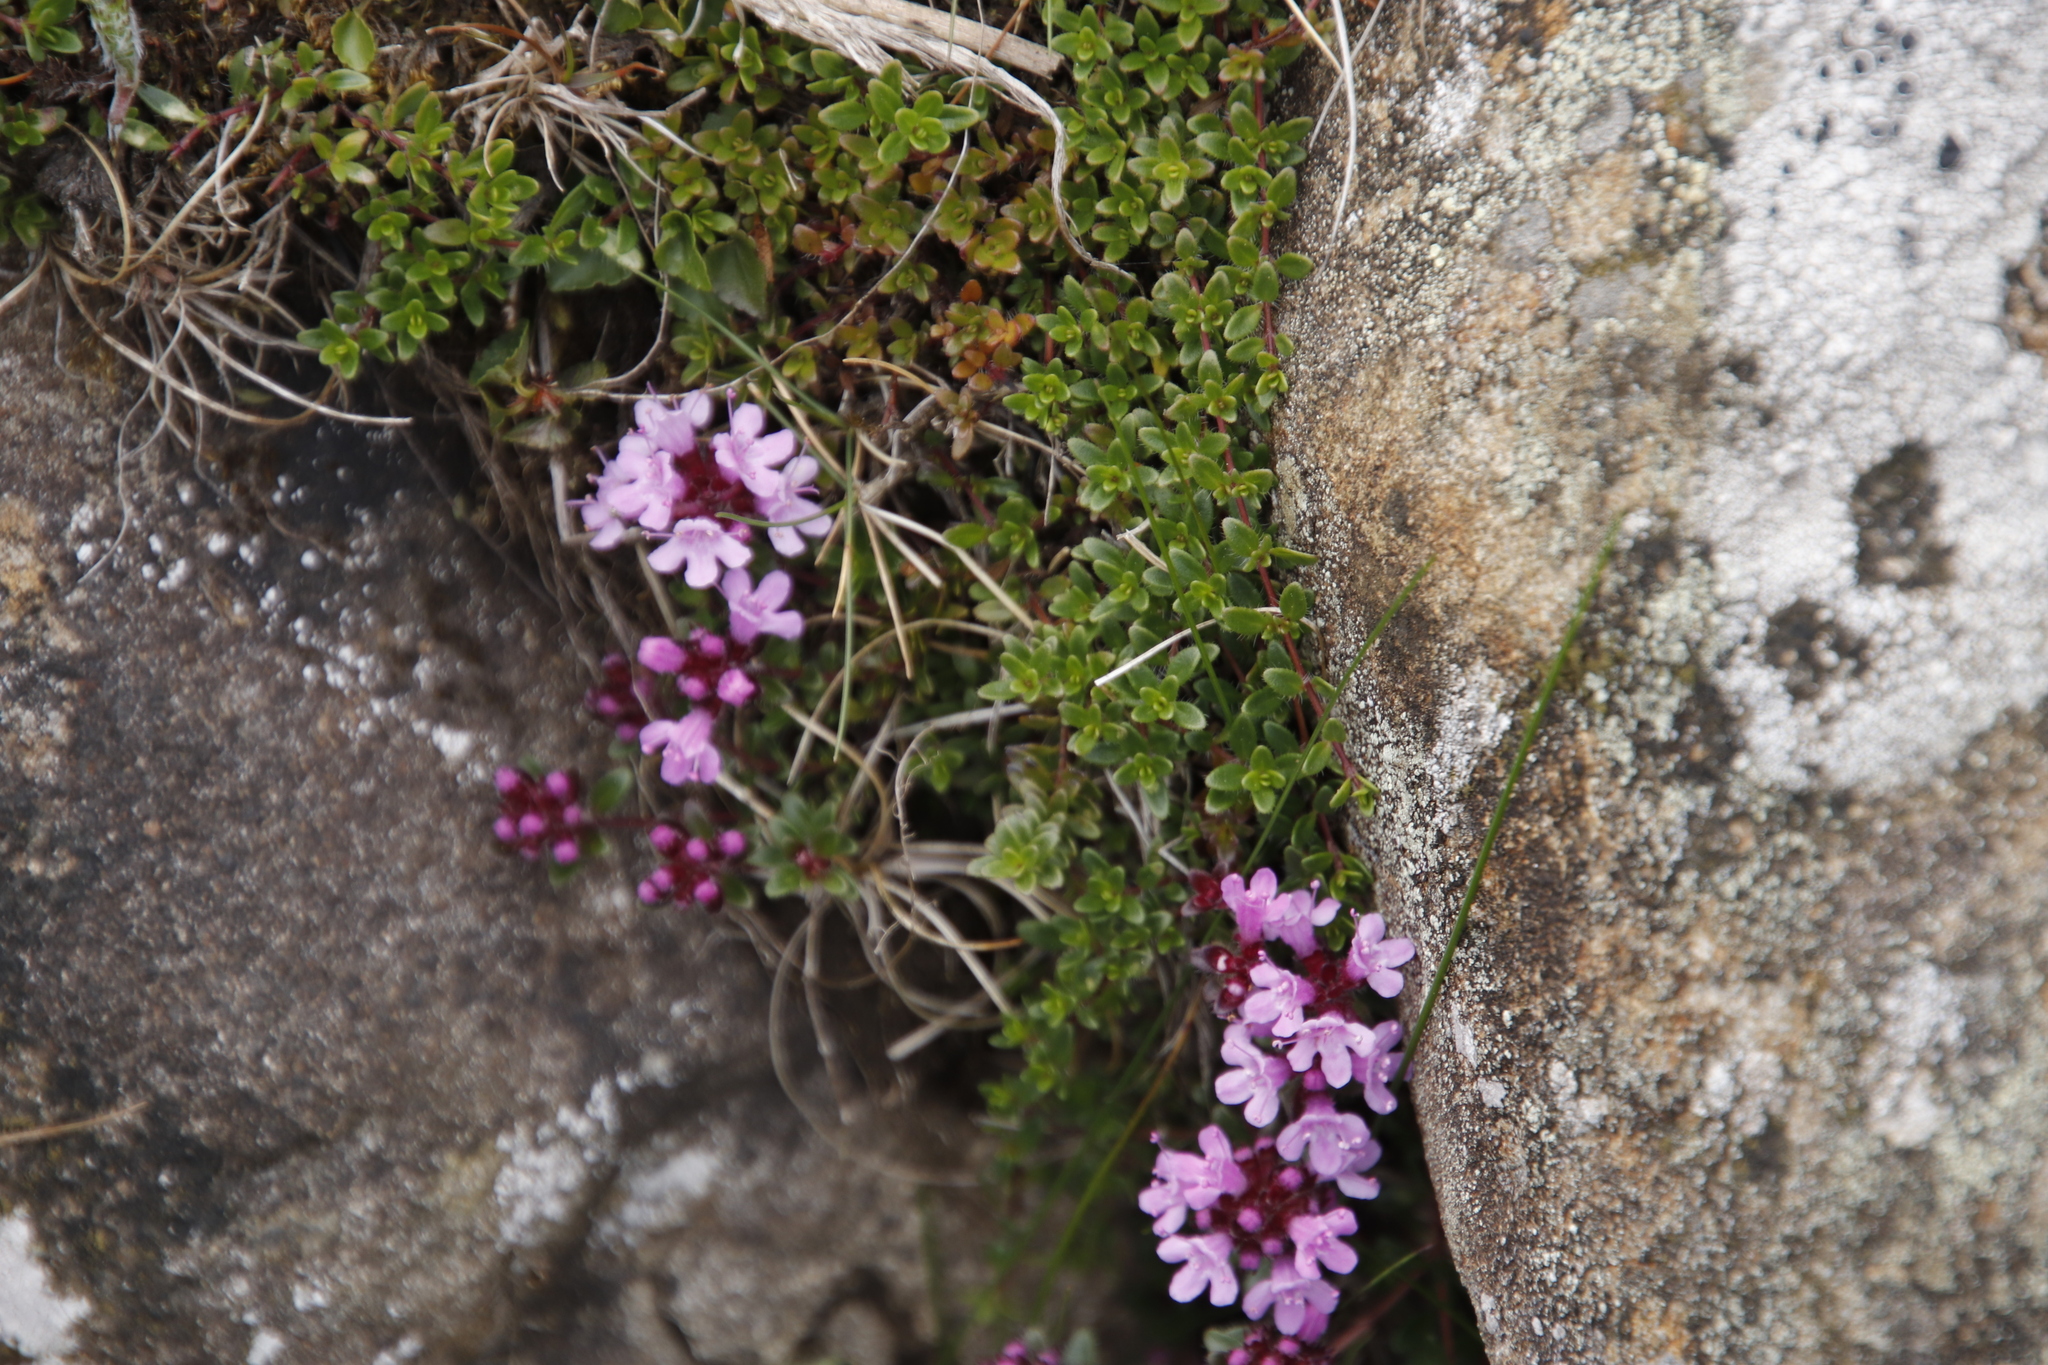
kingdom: Plantae
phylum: Tracheophyta
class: Magnoliopsida
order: Lamiales
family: Lamiaceae
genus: Thymus
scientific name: Thymus praecox
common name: Wild thyme
